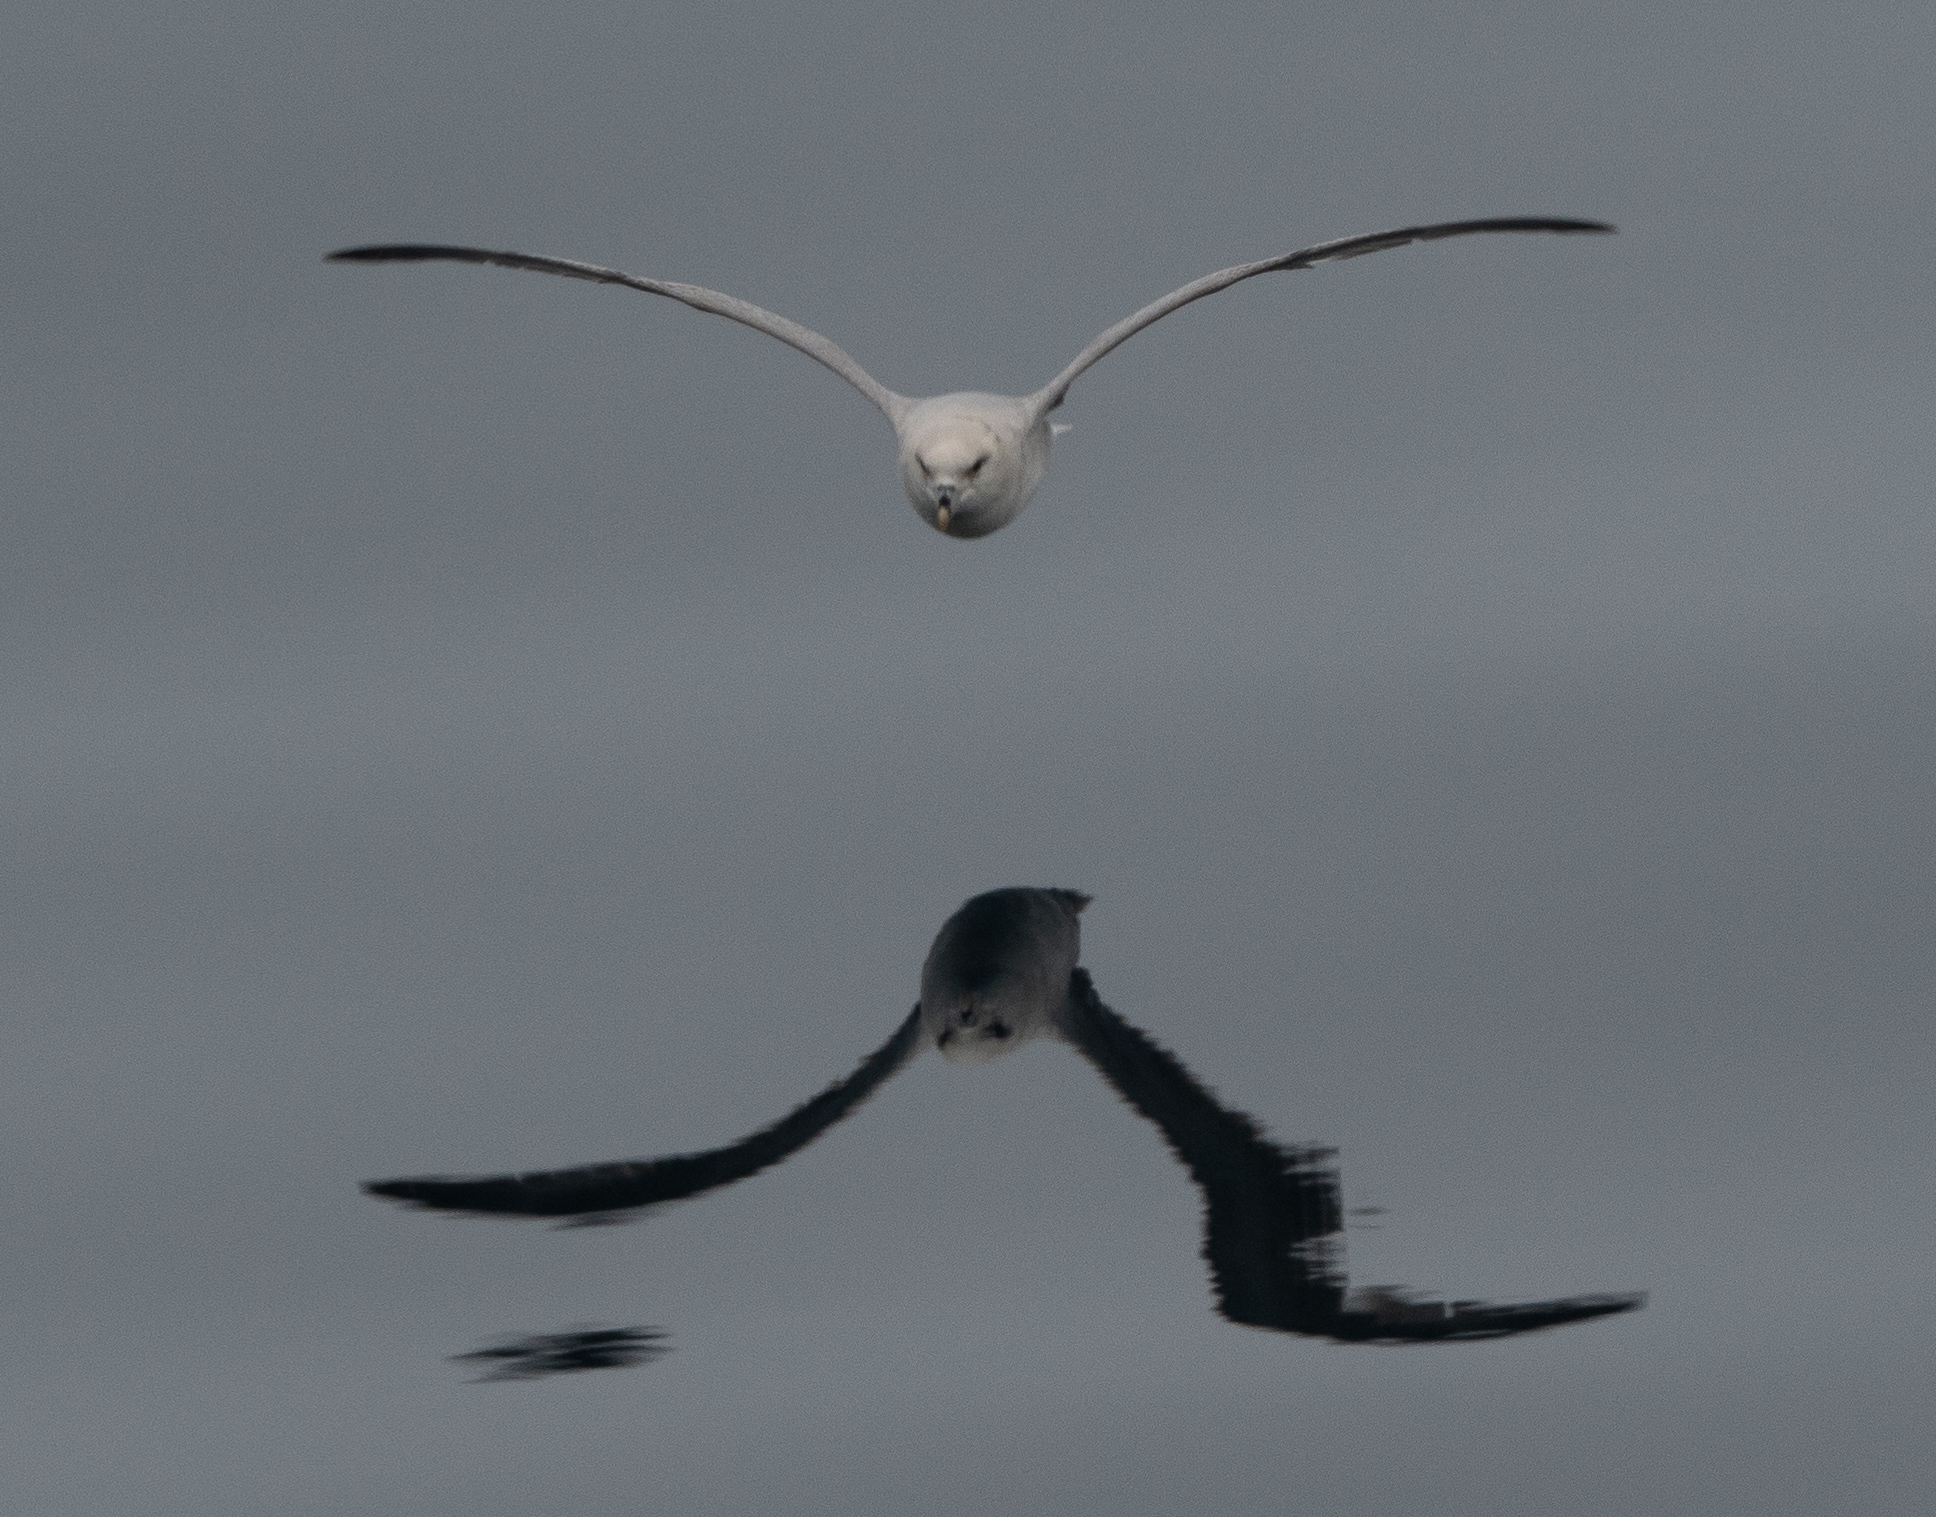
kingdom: Animalia
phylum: Chordata
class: Aves
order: Procellariiformes
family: Procellariidae
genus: Fulmarus
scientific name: Fulmarus glacialis
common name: Northern fulmar
